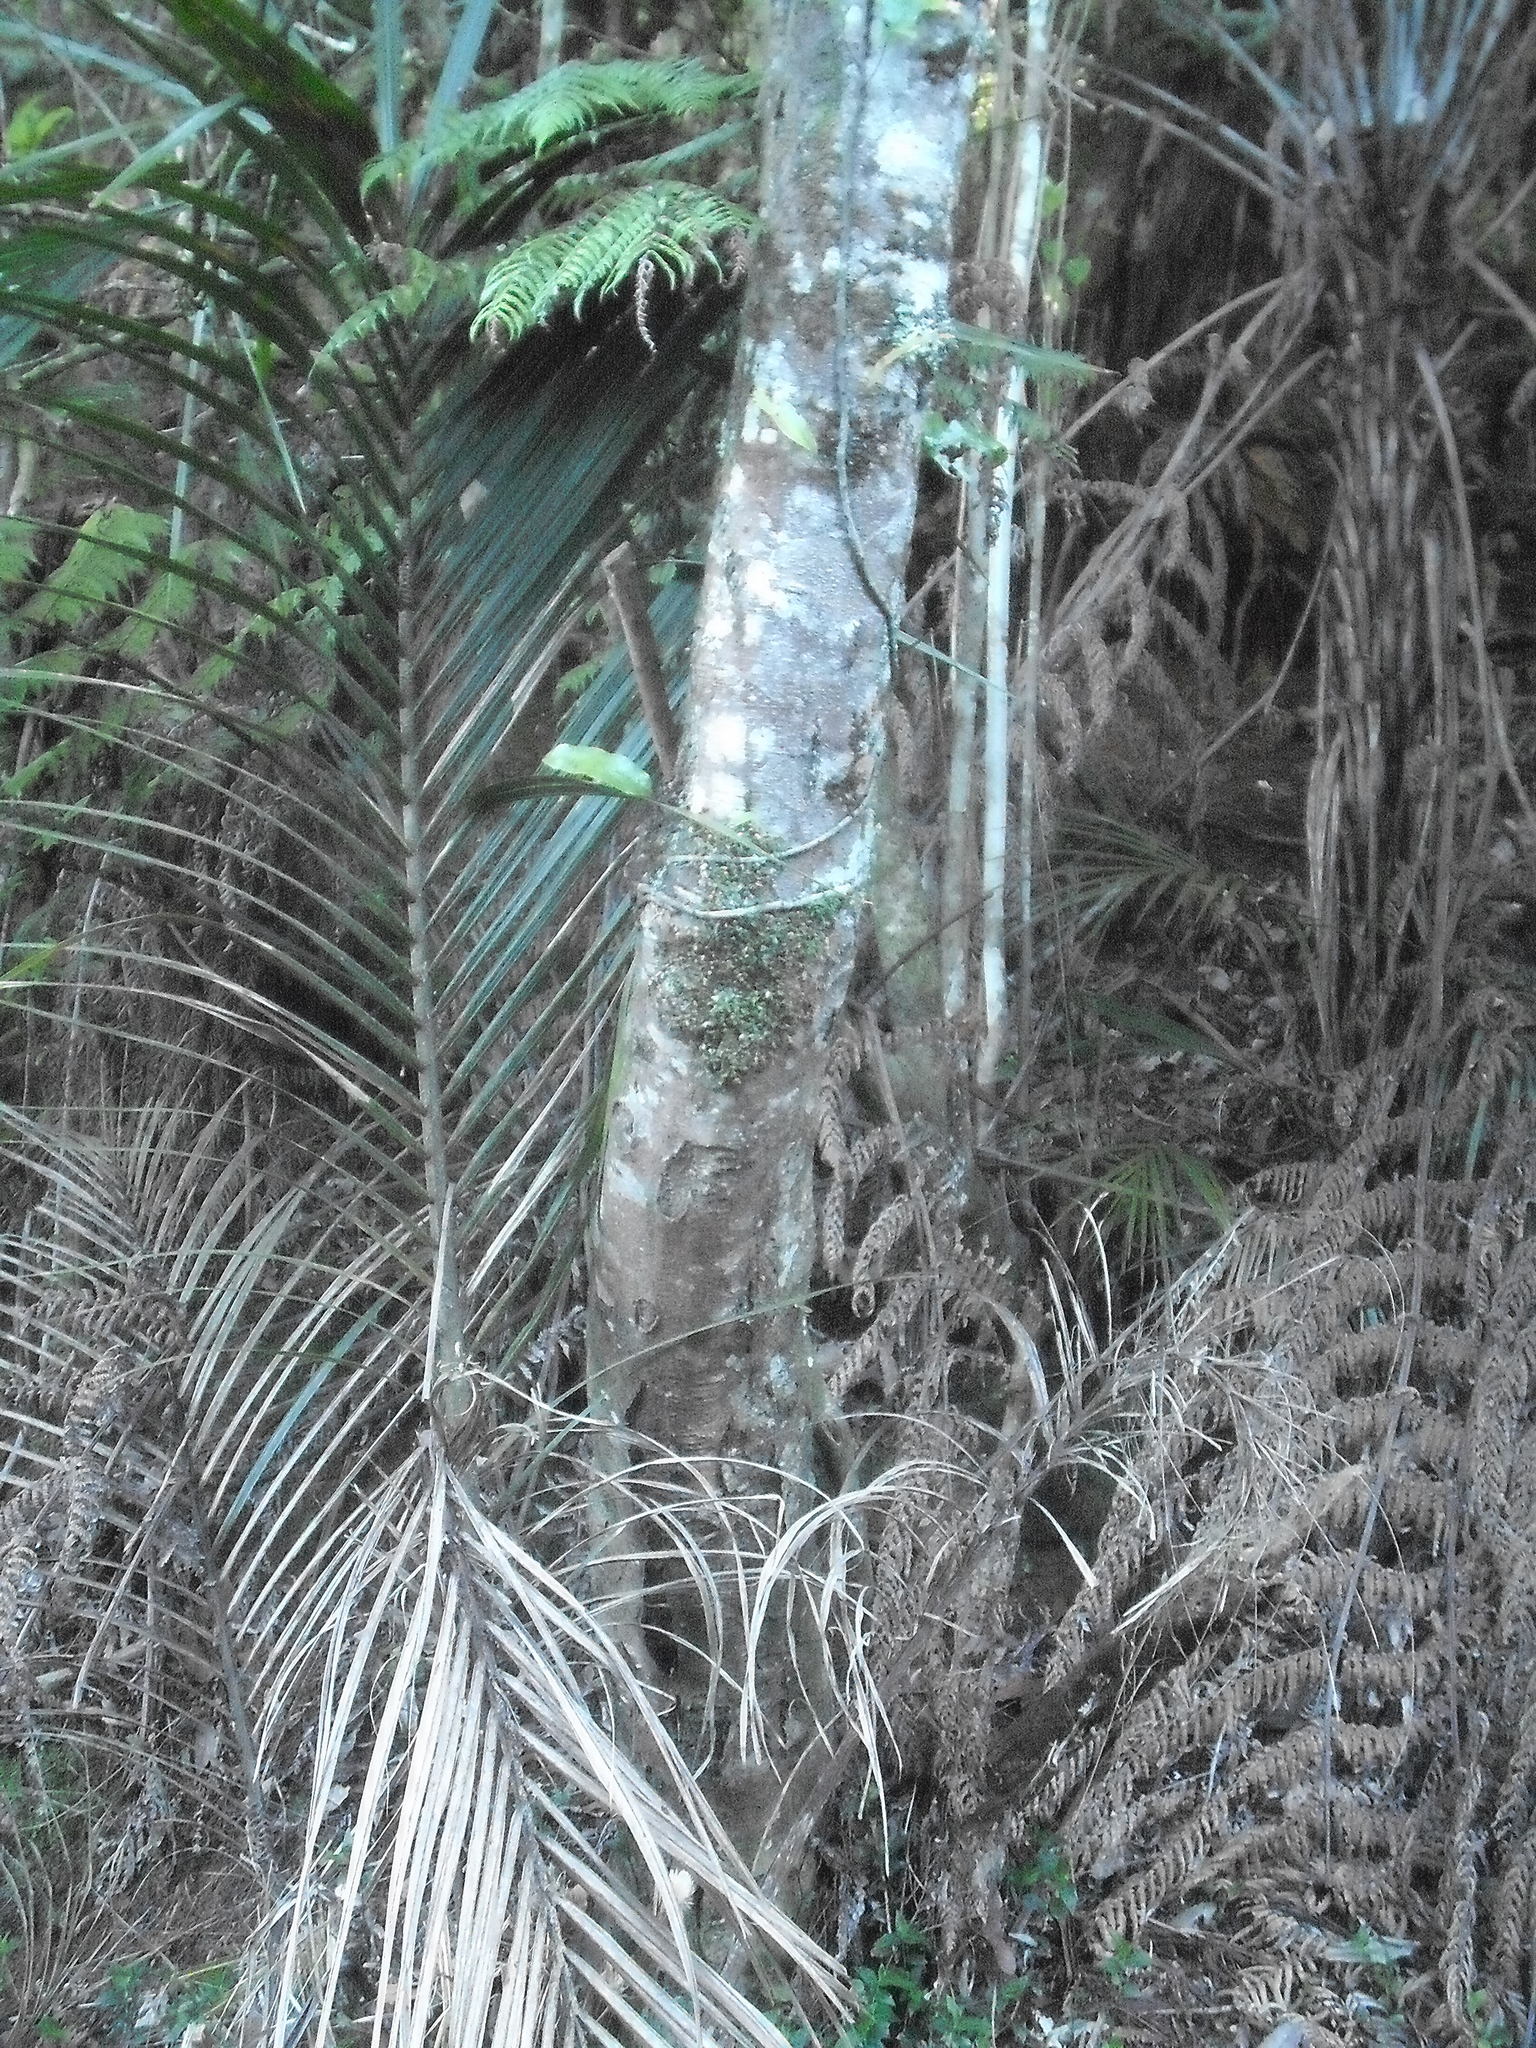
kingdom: Plantae
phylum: Tracheophyta
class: Liliopsida
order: Asparagales
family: Orchidaceae
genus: Bulbophyllum
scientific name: Bulbophyllum pygmaeum
